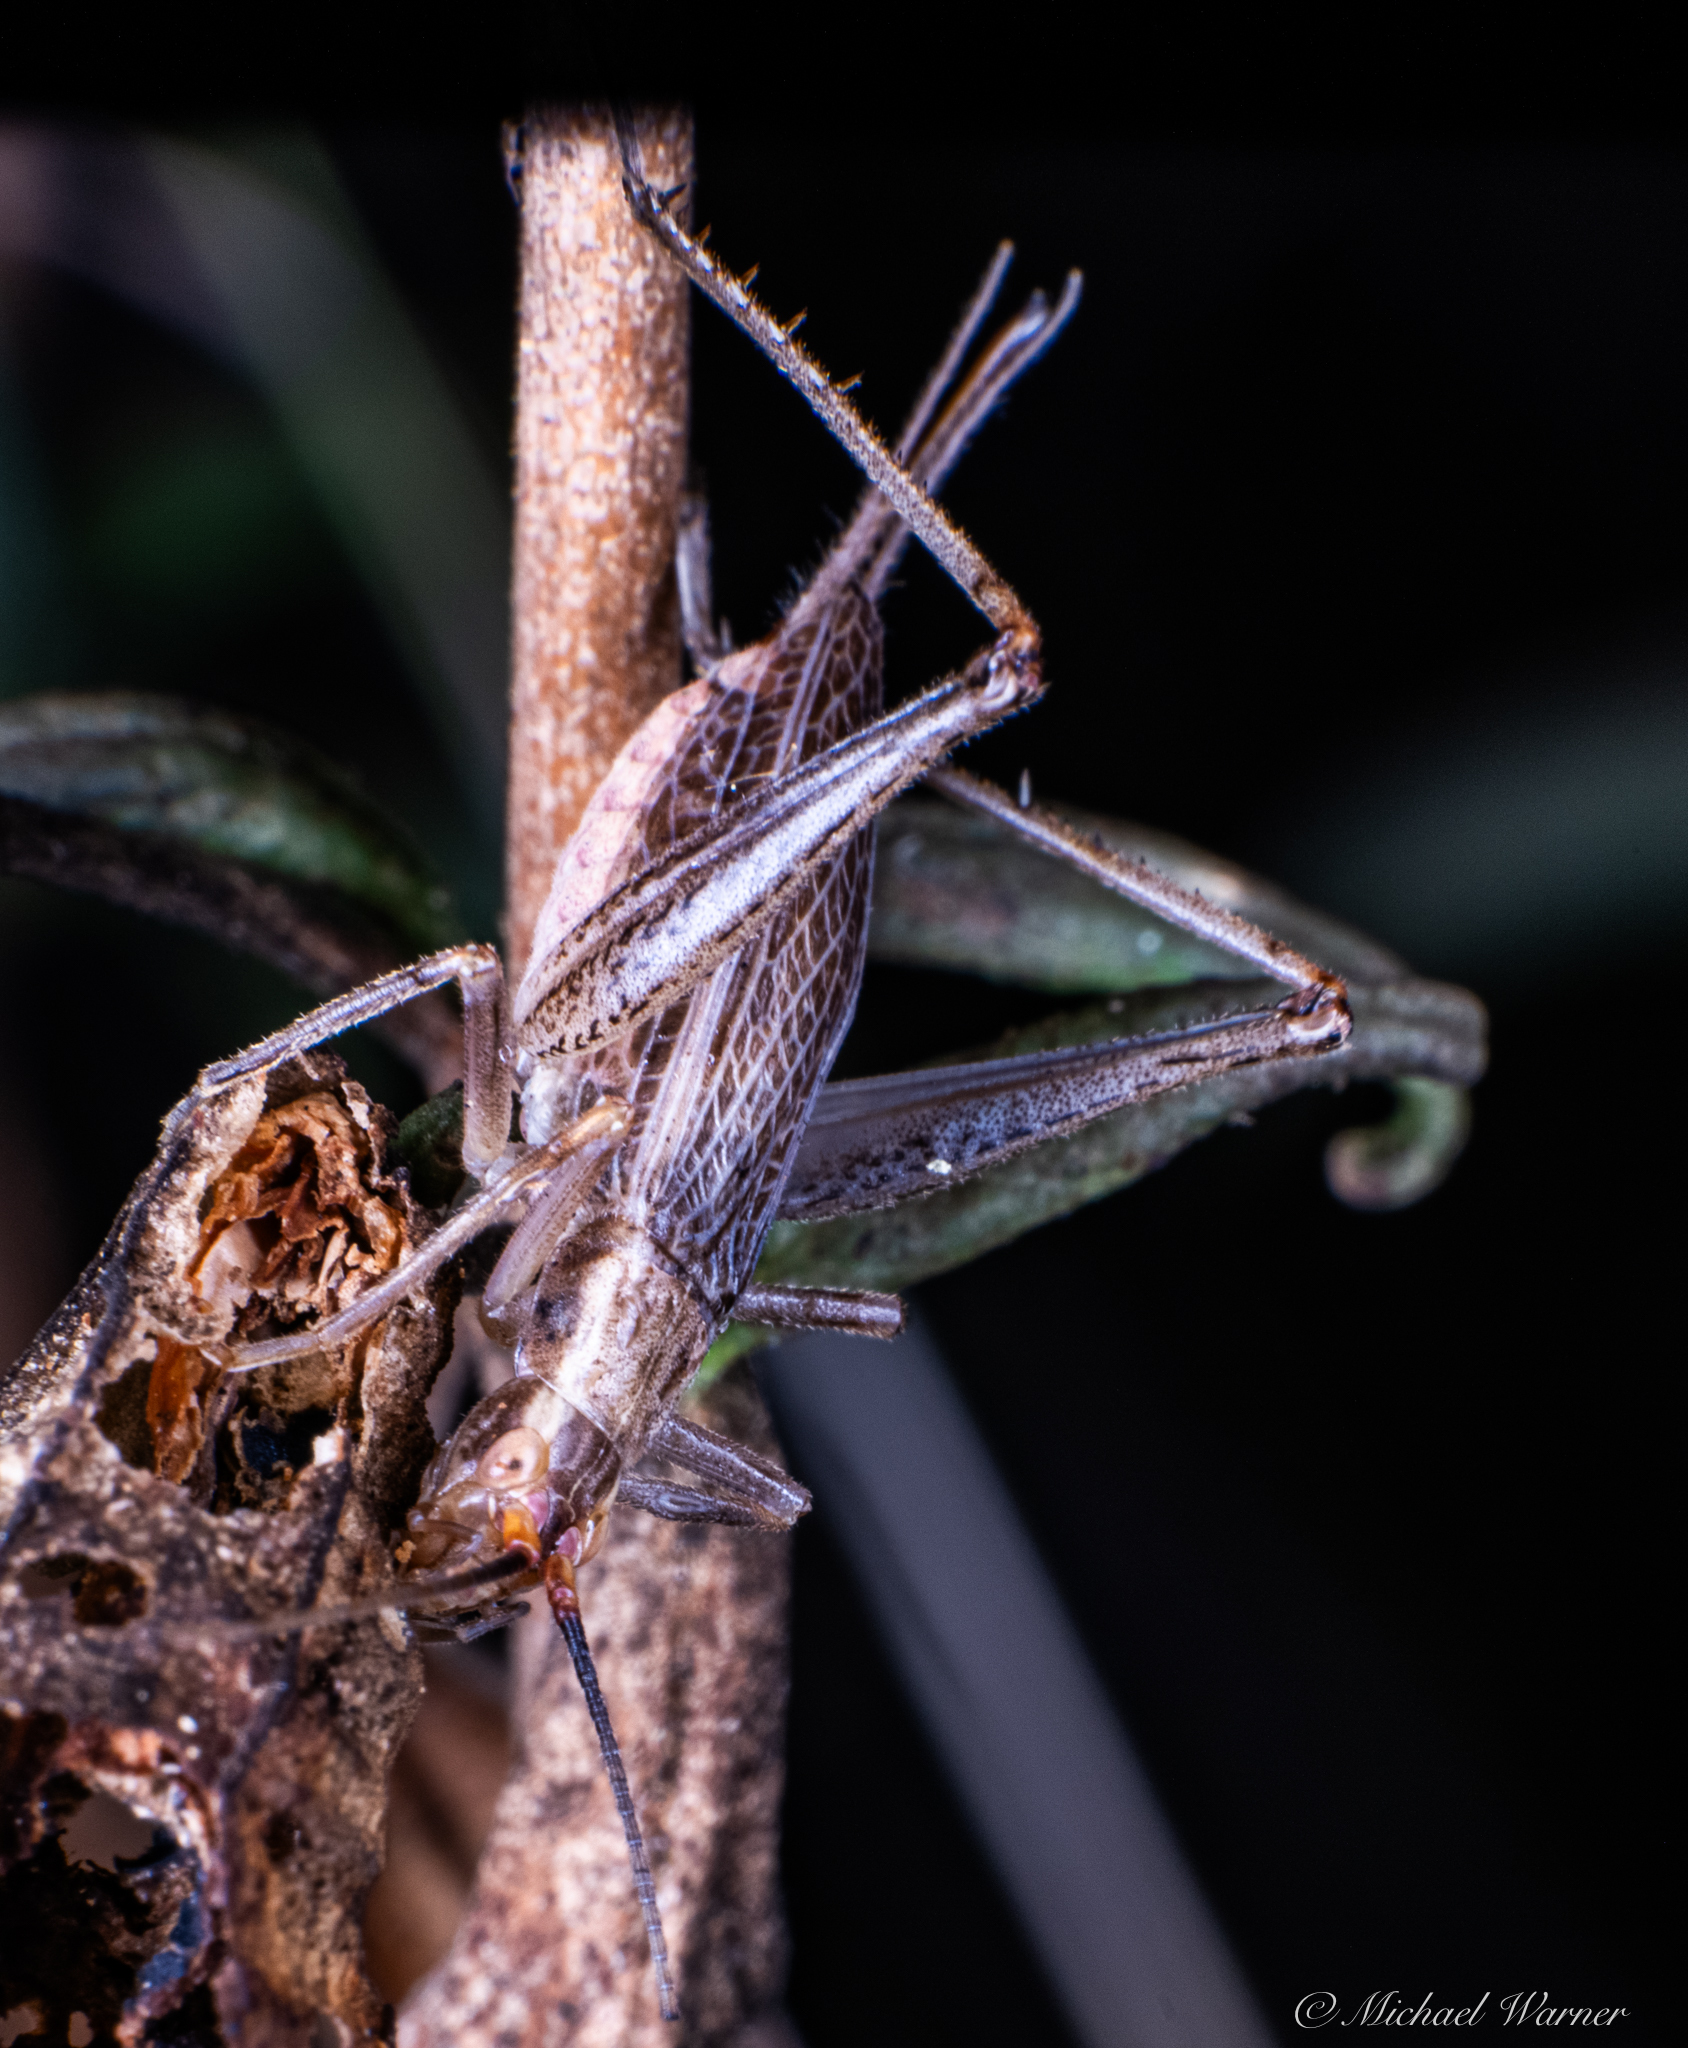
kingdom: Animalia
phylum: Arthropoda
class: Insecta
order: Orthoptera
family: Gryllidae
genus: Oecanthus
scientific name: Oecanthus californicus
